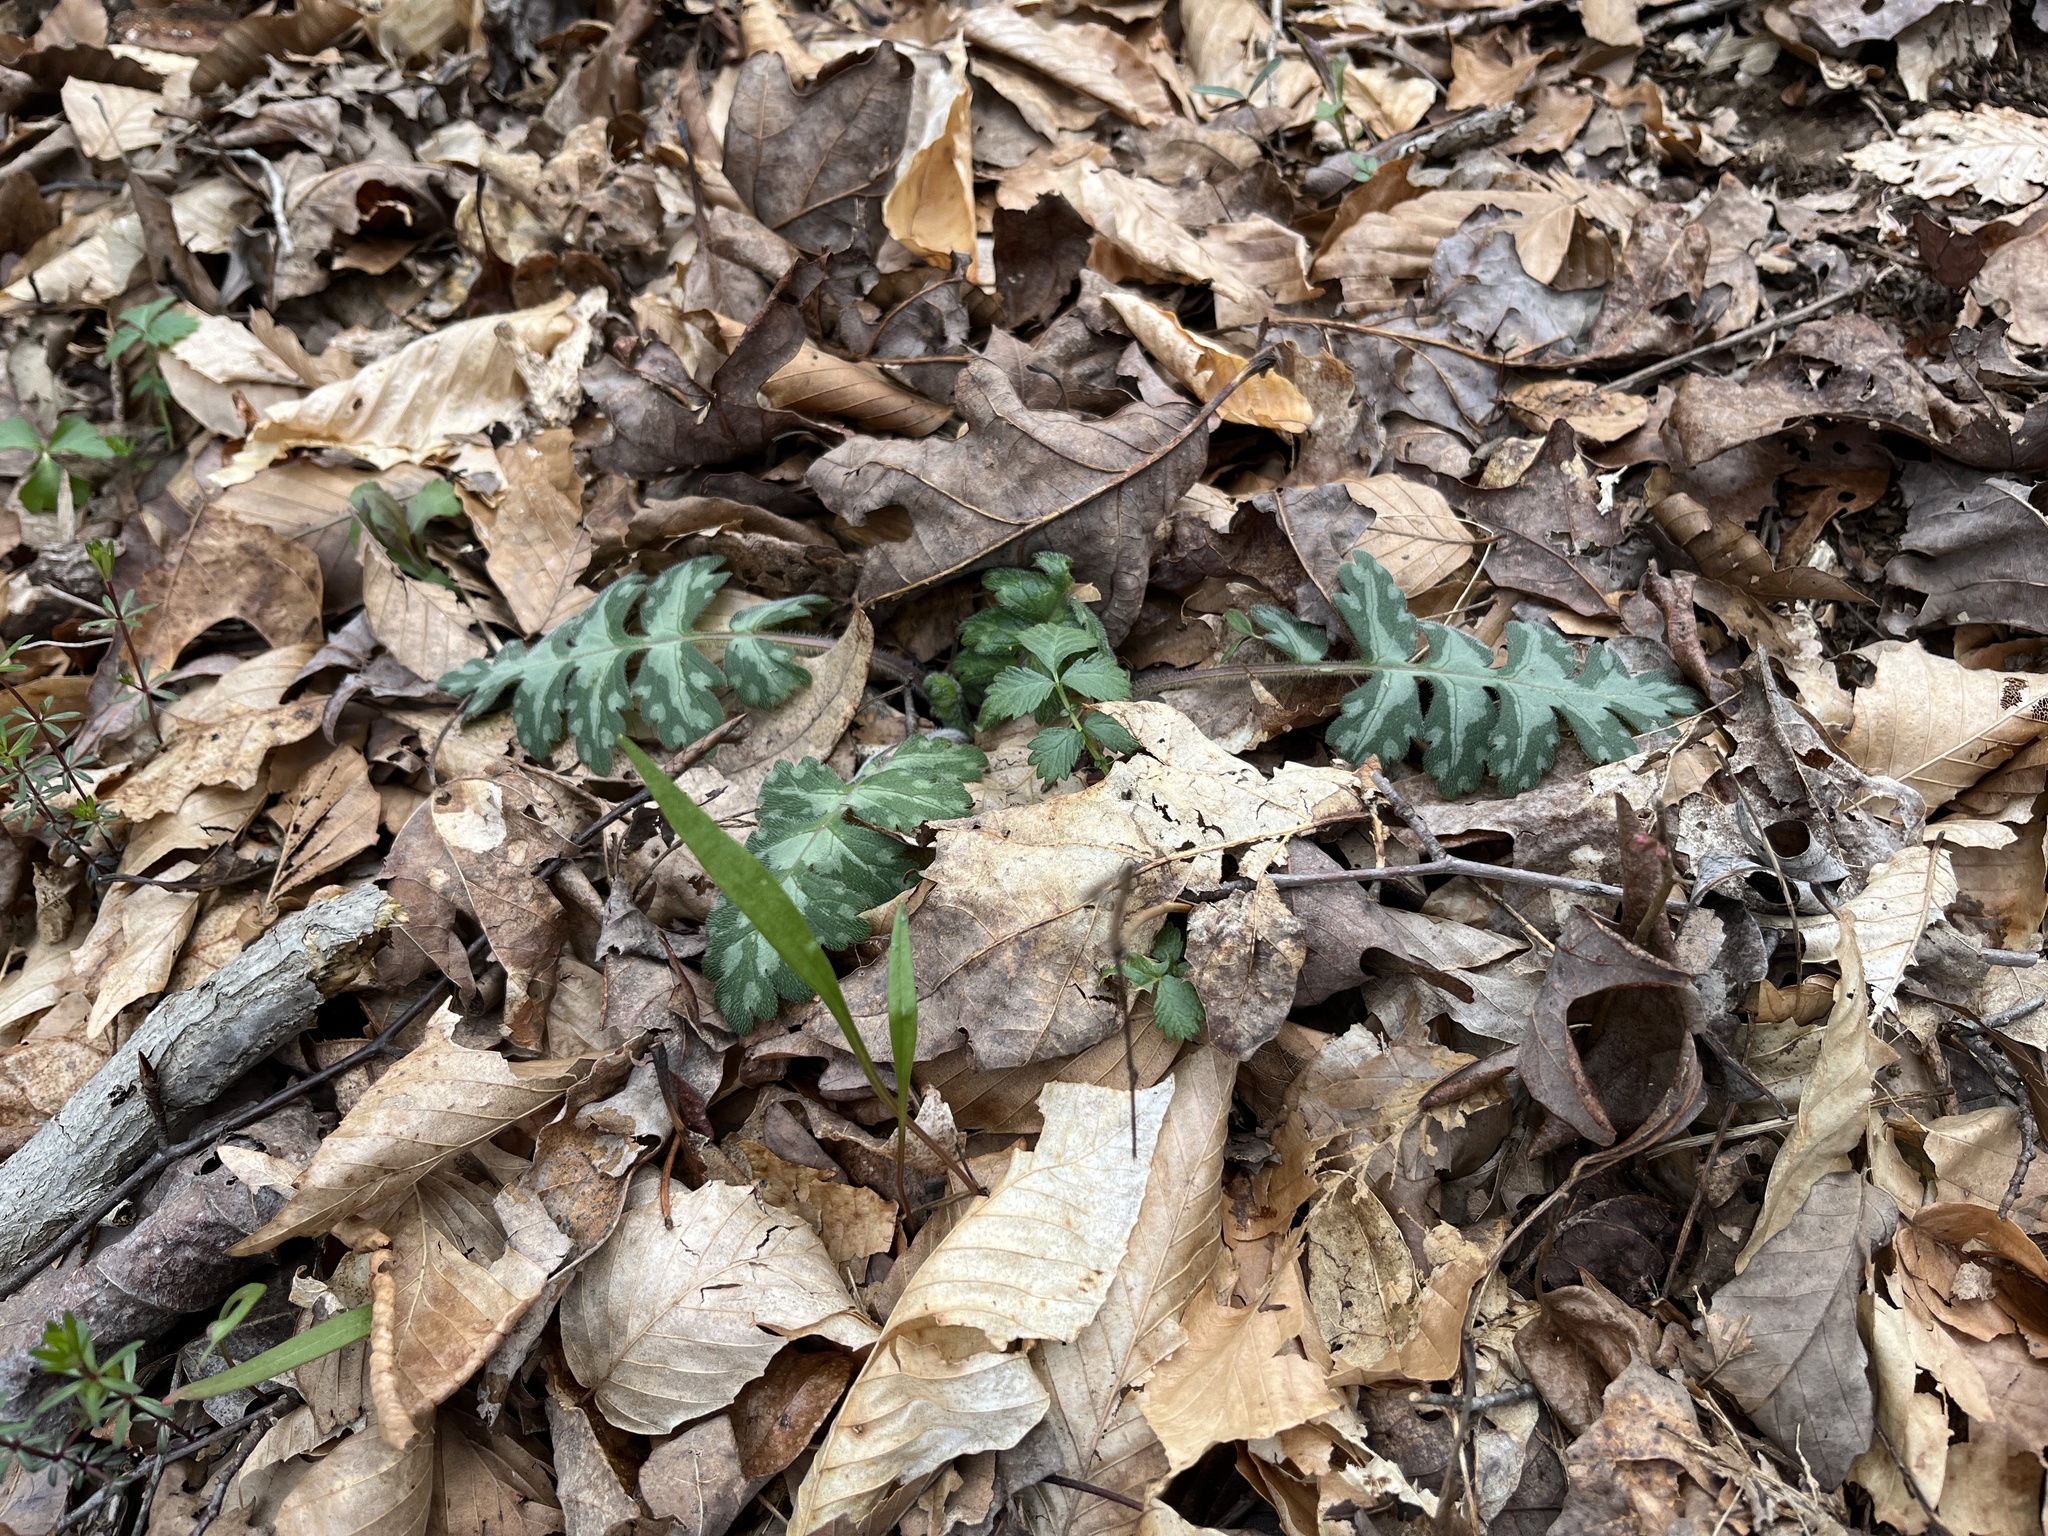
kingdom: Plantae
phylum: Tracheophyta
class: Magnoliopsida
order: Boraginales
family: Hydrophyllaceae
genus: Hydrophyllum
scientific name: Hydrophyllum macrophyllum
